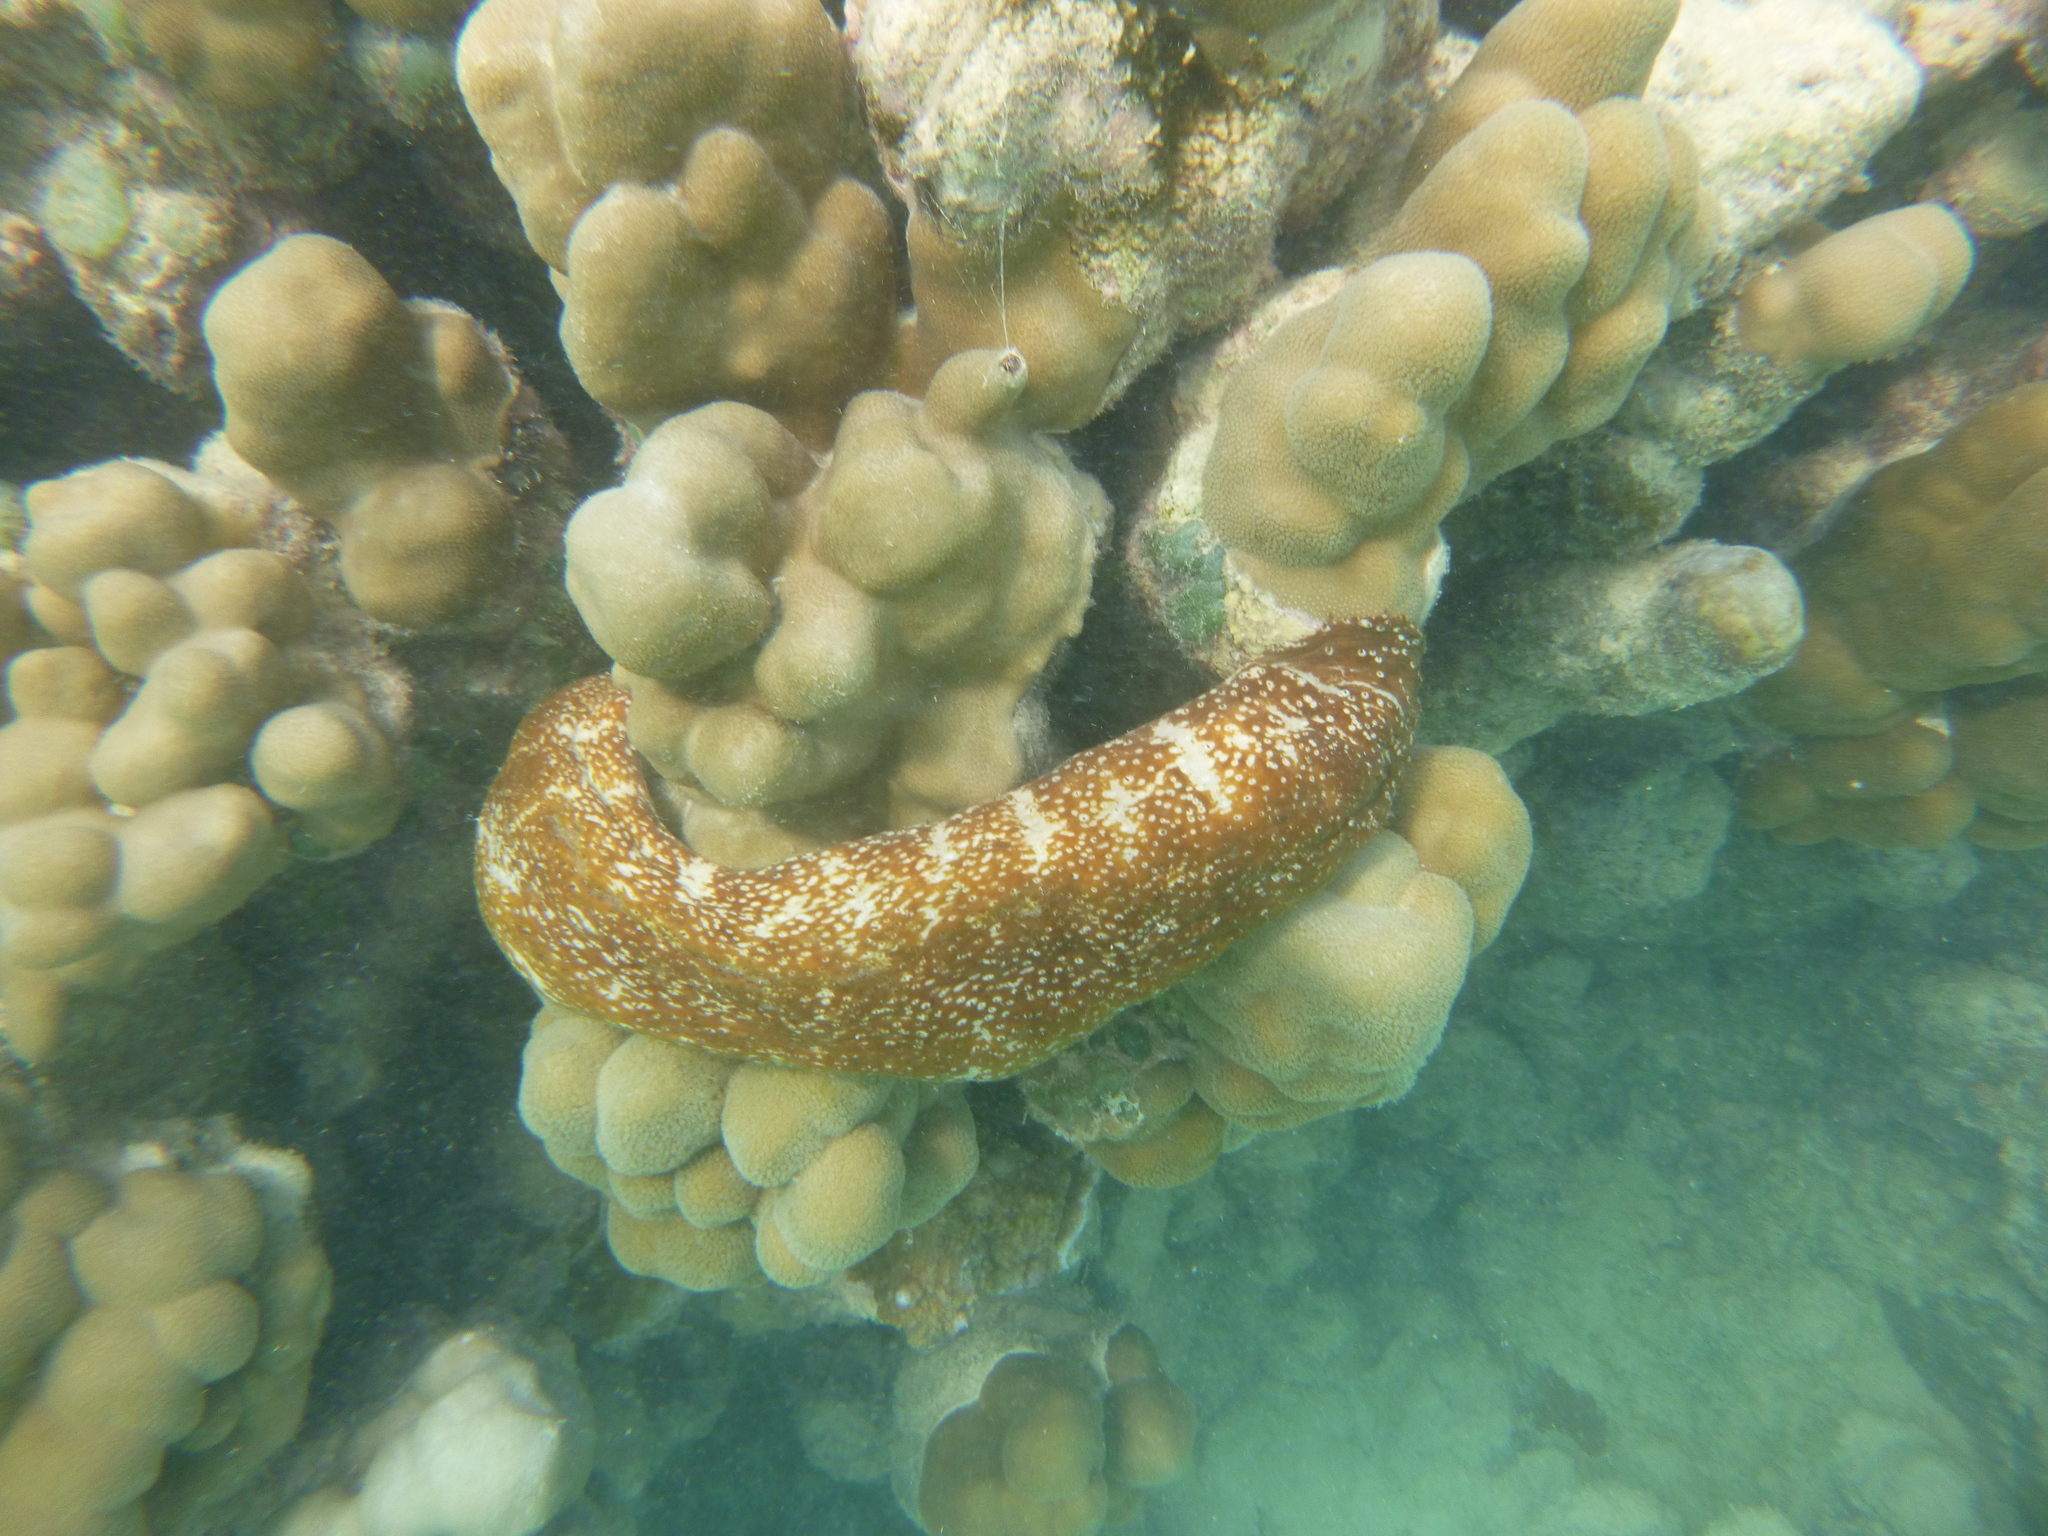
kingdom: Animalia
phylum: Echinodermata
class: Holothuroidea
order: Holothuriida
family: Holothuriidae
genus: Actinopyga
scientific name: Actinopyga varians
